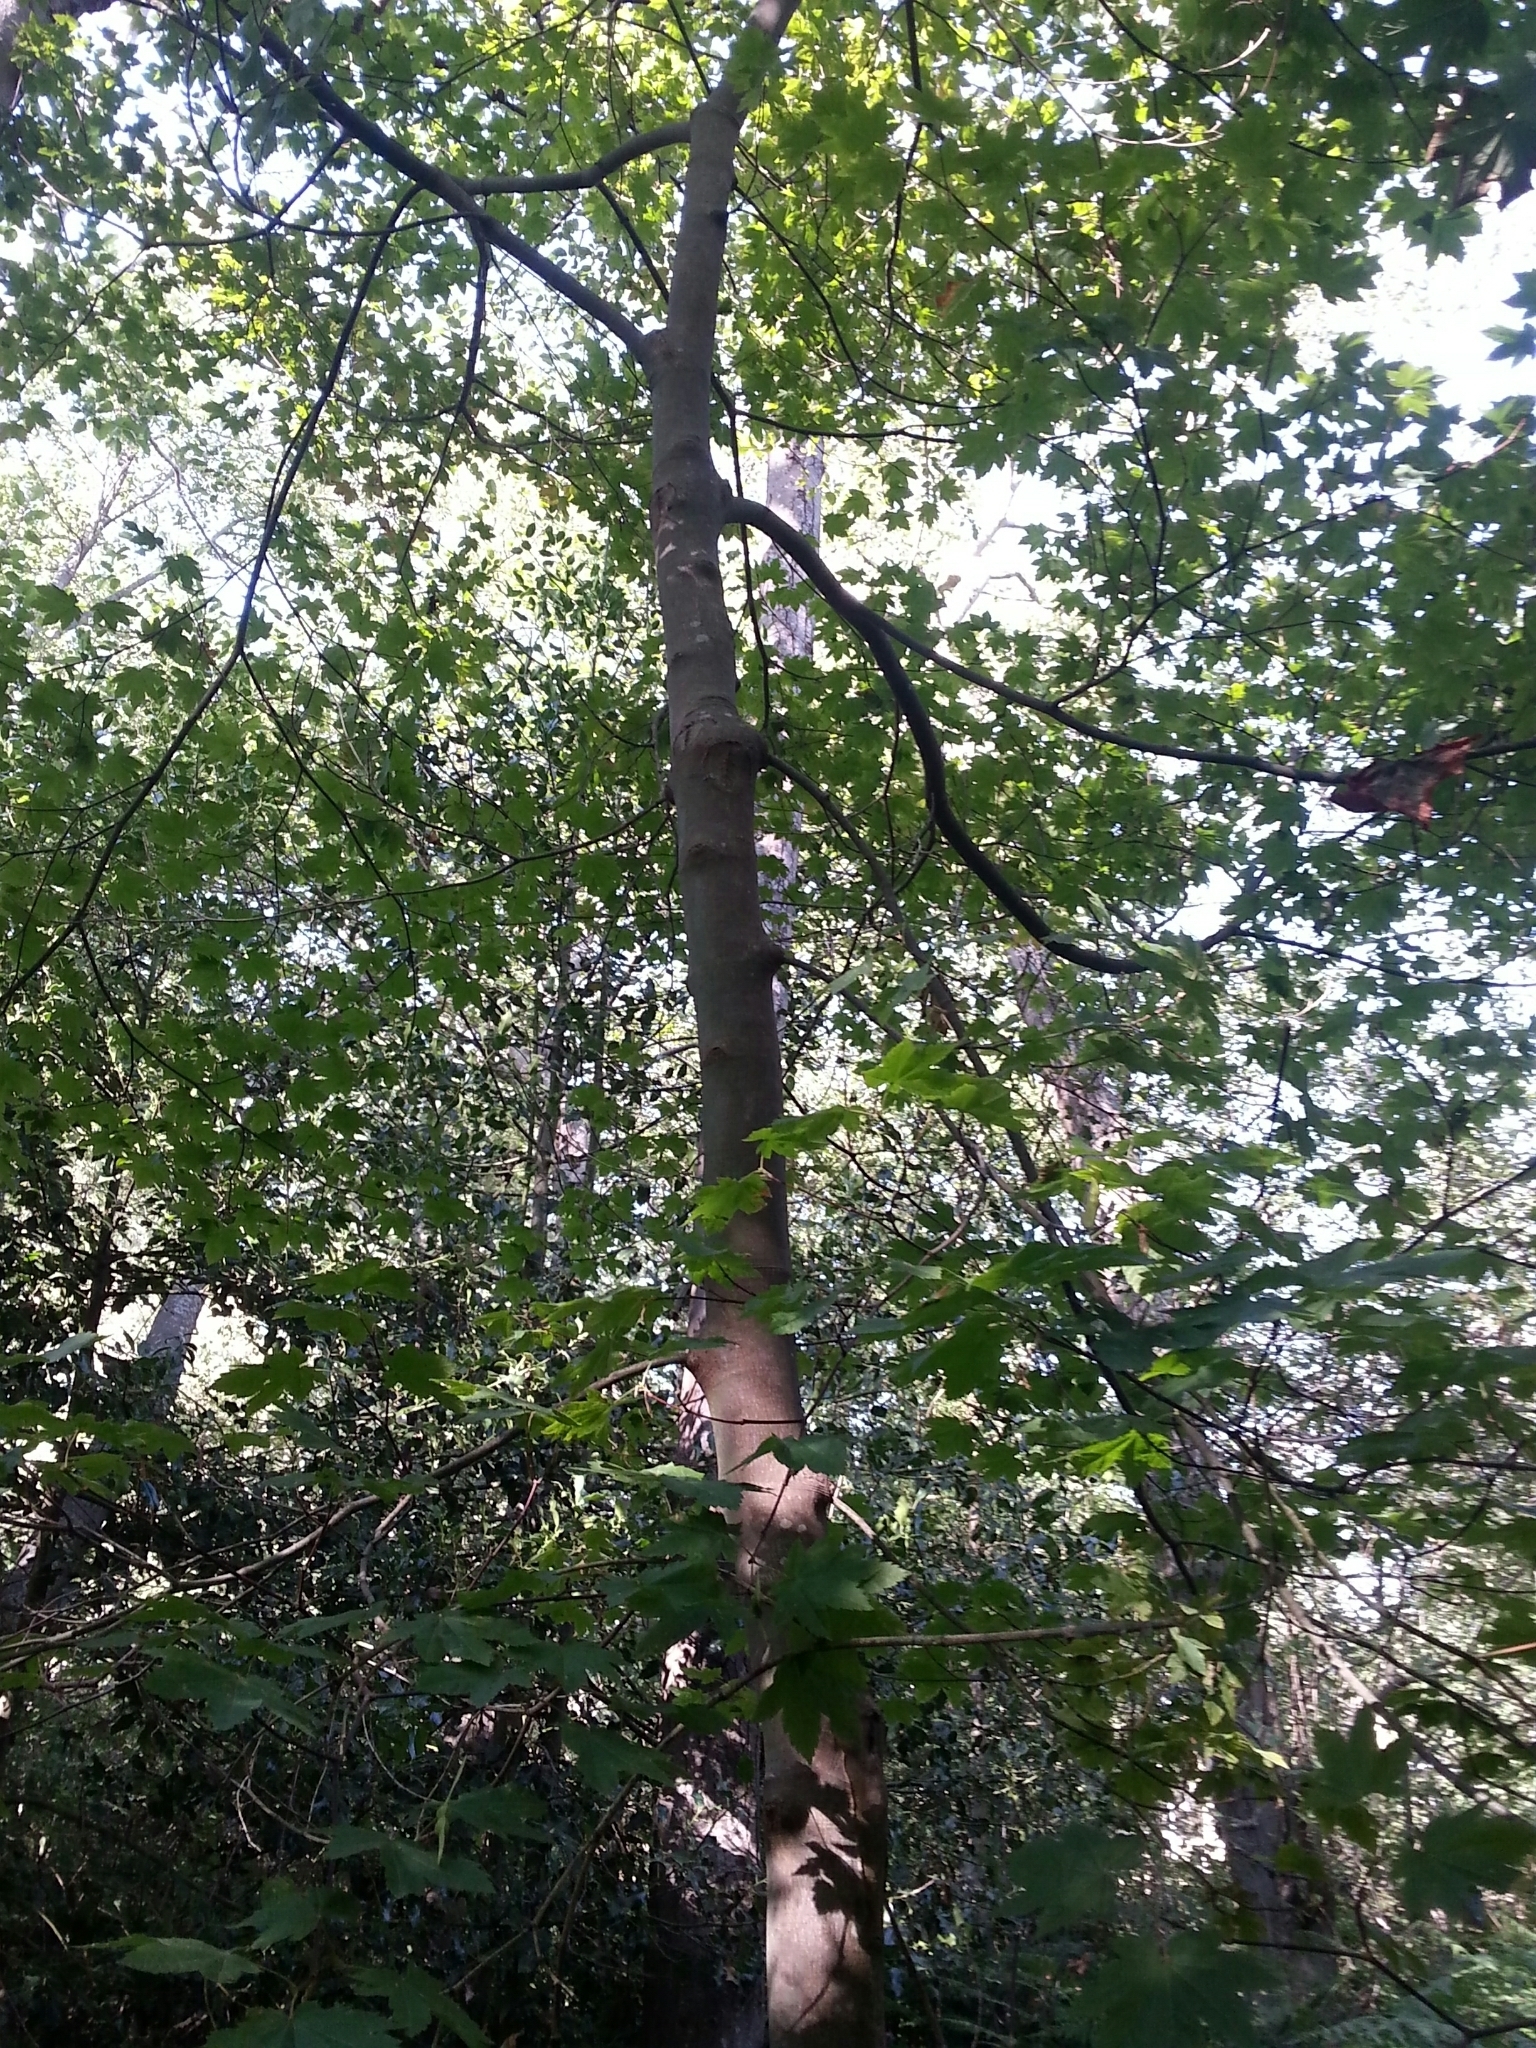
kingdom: Plantae
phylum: Tracheophyta
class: Magnoliopsida
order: Sapindales
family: Sapindaceae
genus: Acer
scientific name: Acer circinatum
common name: Vine maple
